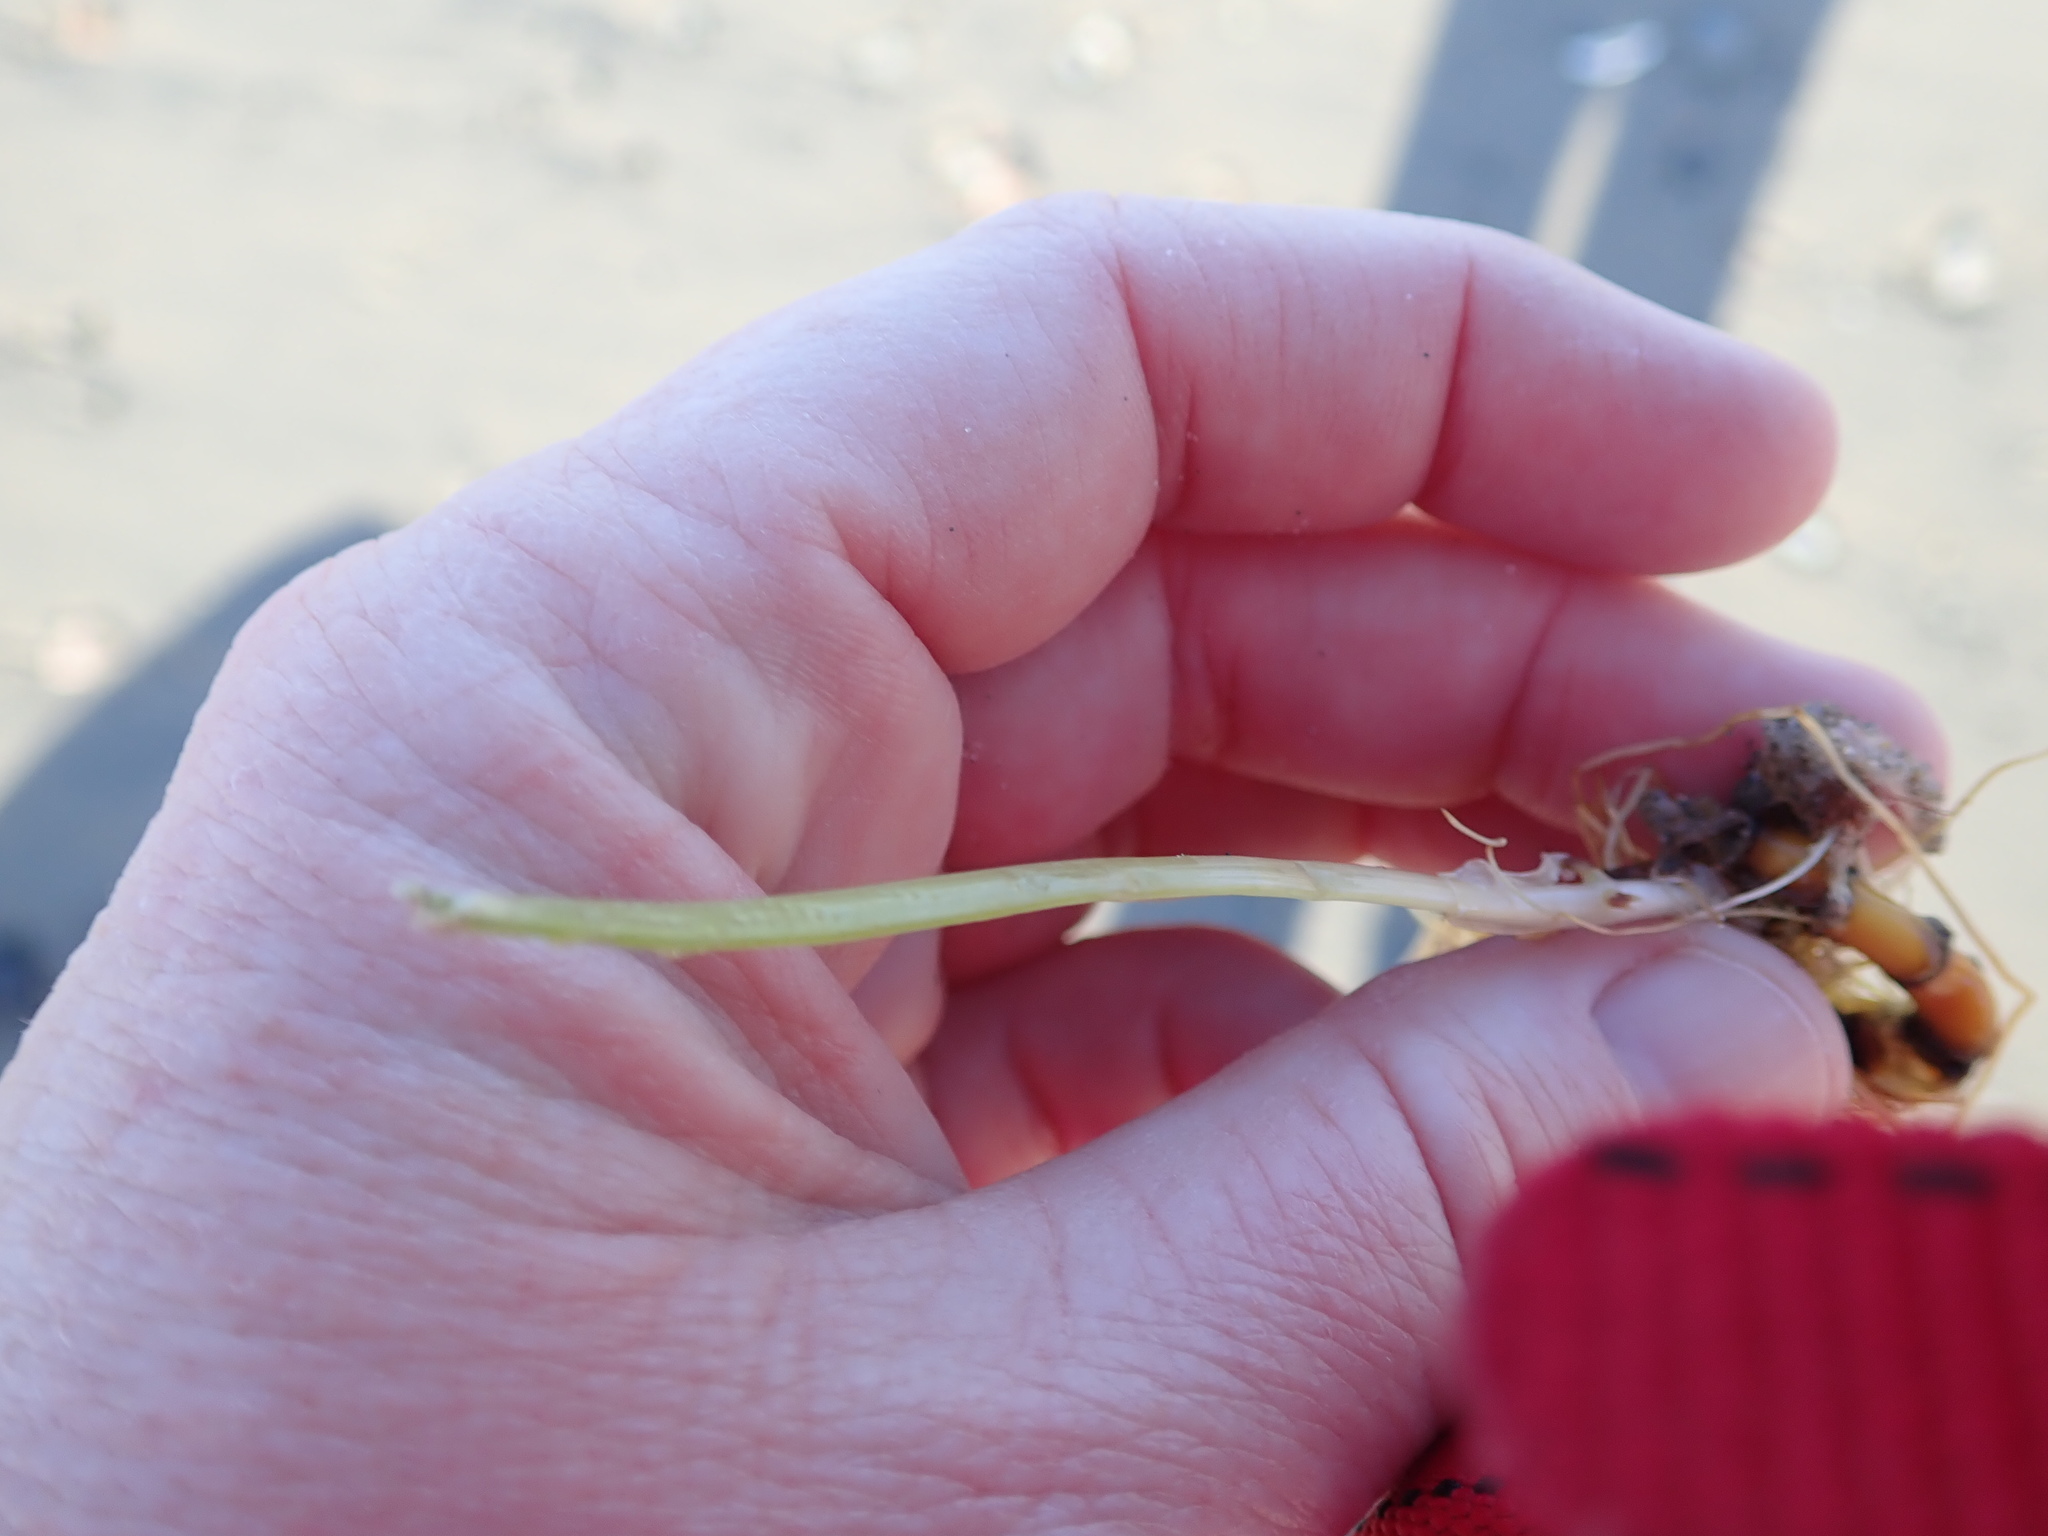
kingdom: Plantae
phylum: Tracheophyta
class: Liliopsida
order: Alismatales
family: Zosteraceae
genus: Zostera
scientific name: Zostera marina
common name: Eelgrass
